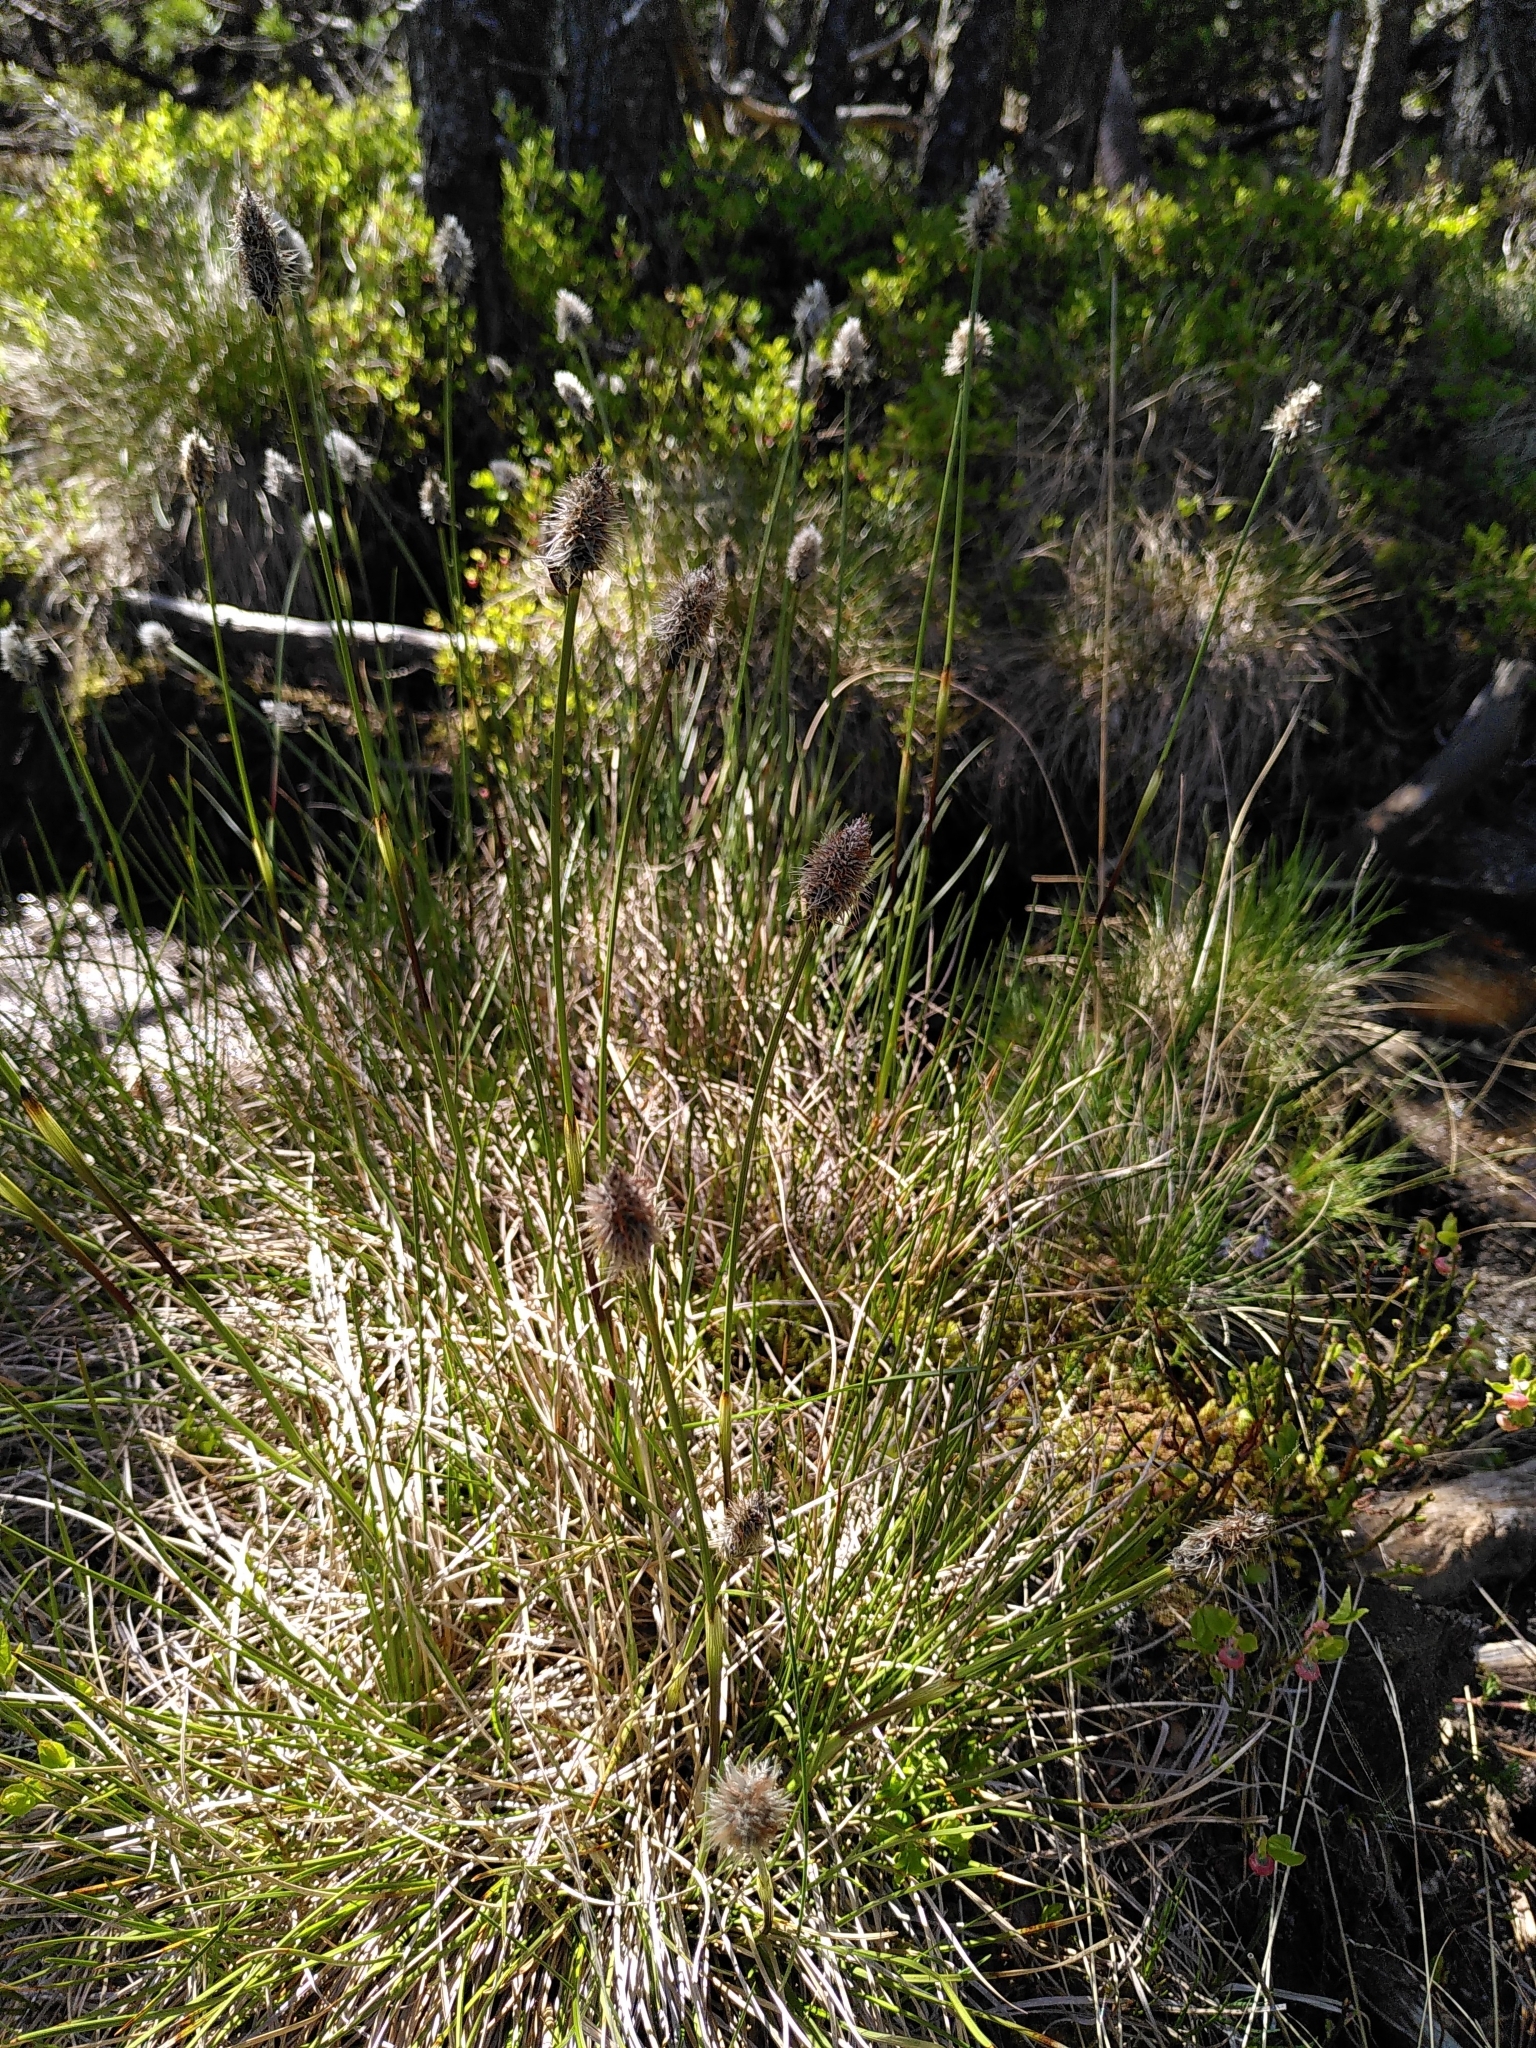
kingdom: Plantae
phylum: Tracheophyta
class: Liliopsida
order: Poales
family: Cyperaceae
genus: Eriophorum
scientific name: Eriophorum vaginatum
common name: Hare's-tail cottongrass
